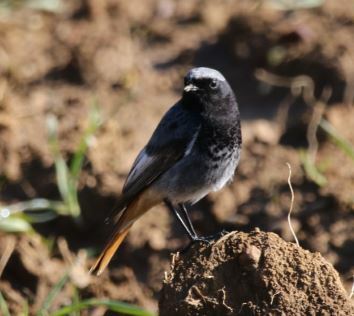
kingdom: Animalia
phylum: Chordata
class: Aves
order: Passeriformes
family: Muscicapidae
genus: Phoenicurus
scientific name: Phoenicurus ochruros
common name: Black redstart
